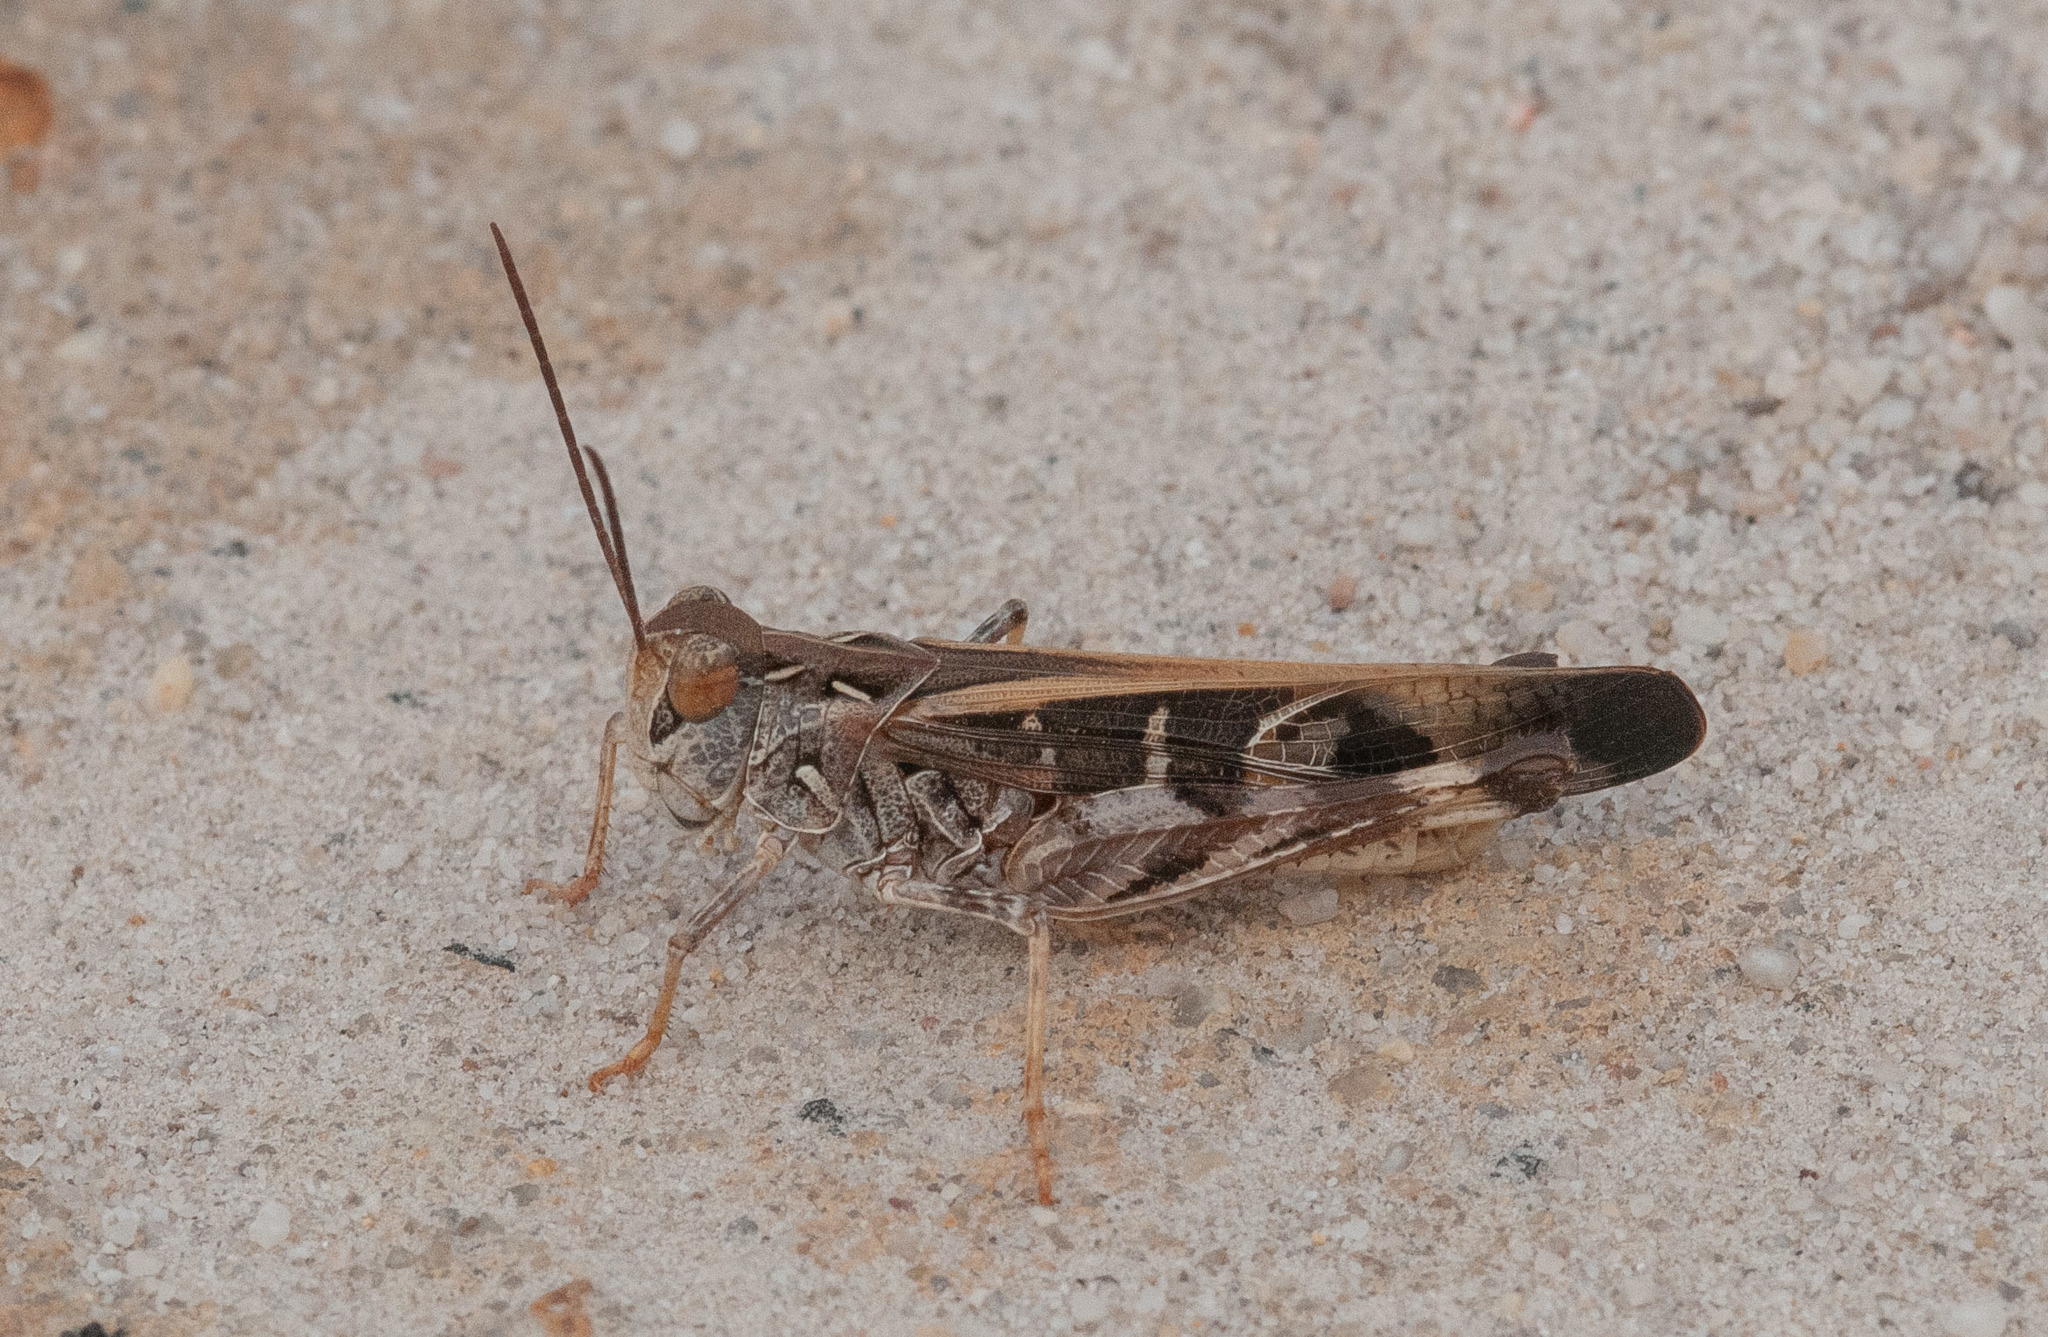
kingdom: Animalia
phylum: Arthropoda
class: Insecta
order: Orthoptera
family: Acrididae
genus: Oedaleus
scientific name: Oedaleus australis
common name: Eastern oedaleus
